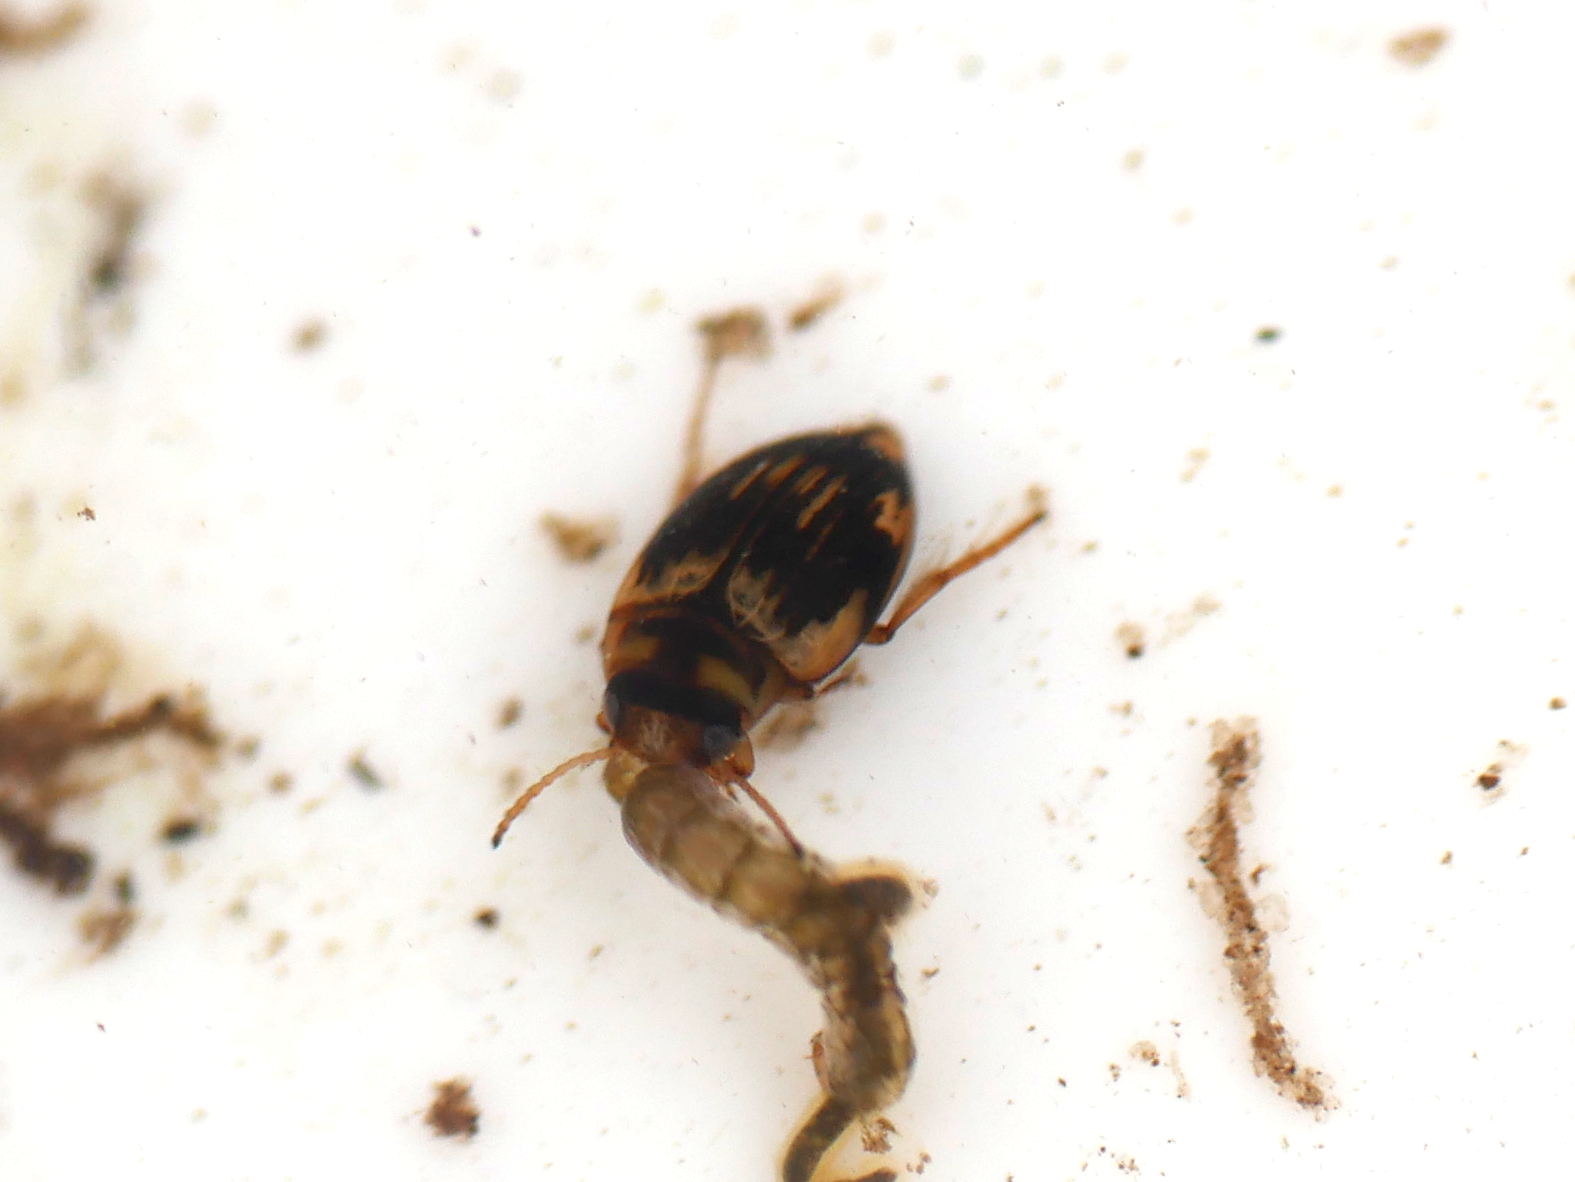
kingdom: Animalia
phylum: Arthropoda
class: Insecta
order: Coleoptera
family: Dytiscidae
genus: Nectoporus
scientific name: Nectoporus sanmarkii
